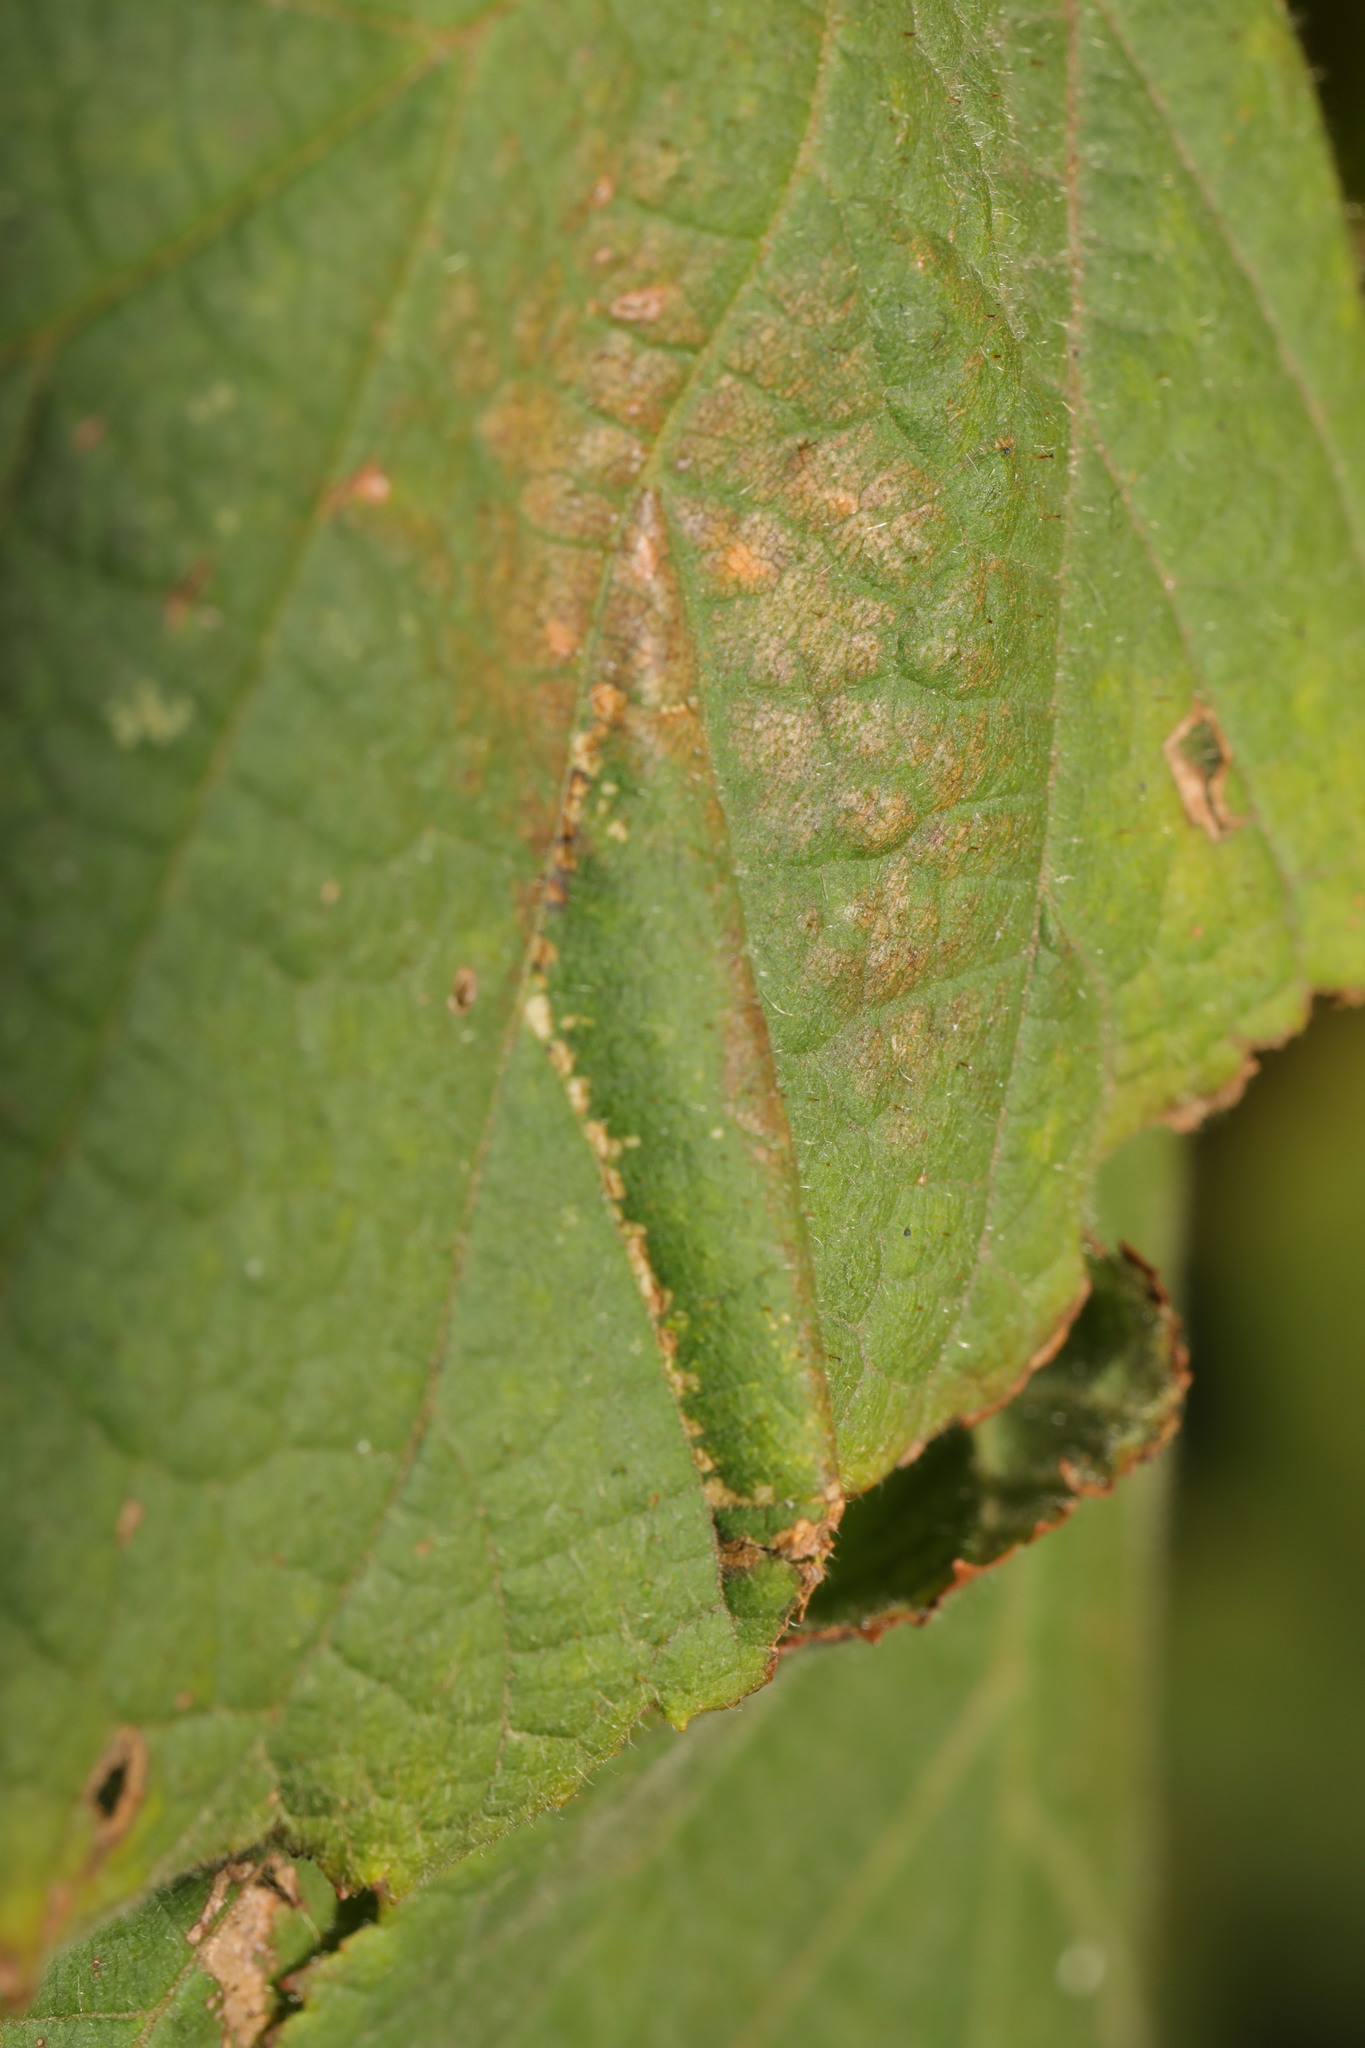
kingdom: Animalia
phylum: Arthropoda
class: Insecta
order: Lepidoptera
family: Gracillariidae
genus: Phyllonorycter
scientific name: Phyllonorycter nicellii
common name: Red hazel midget
